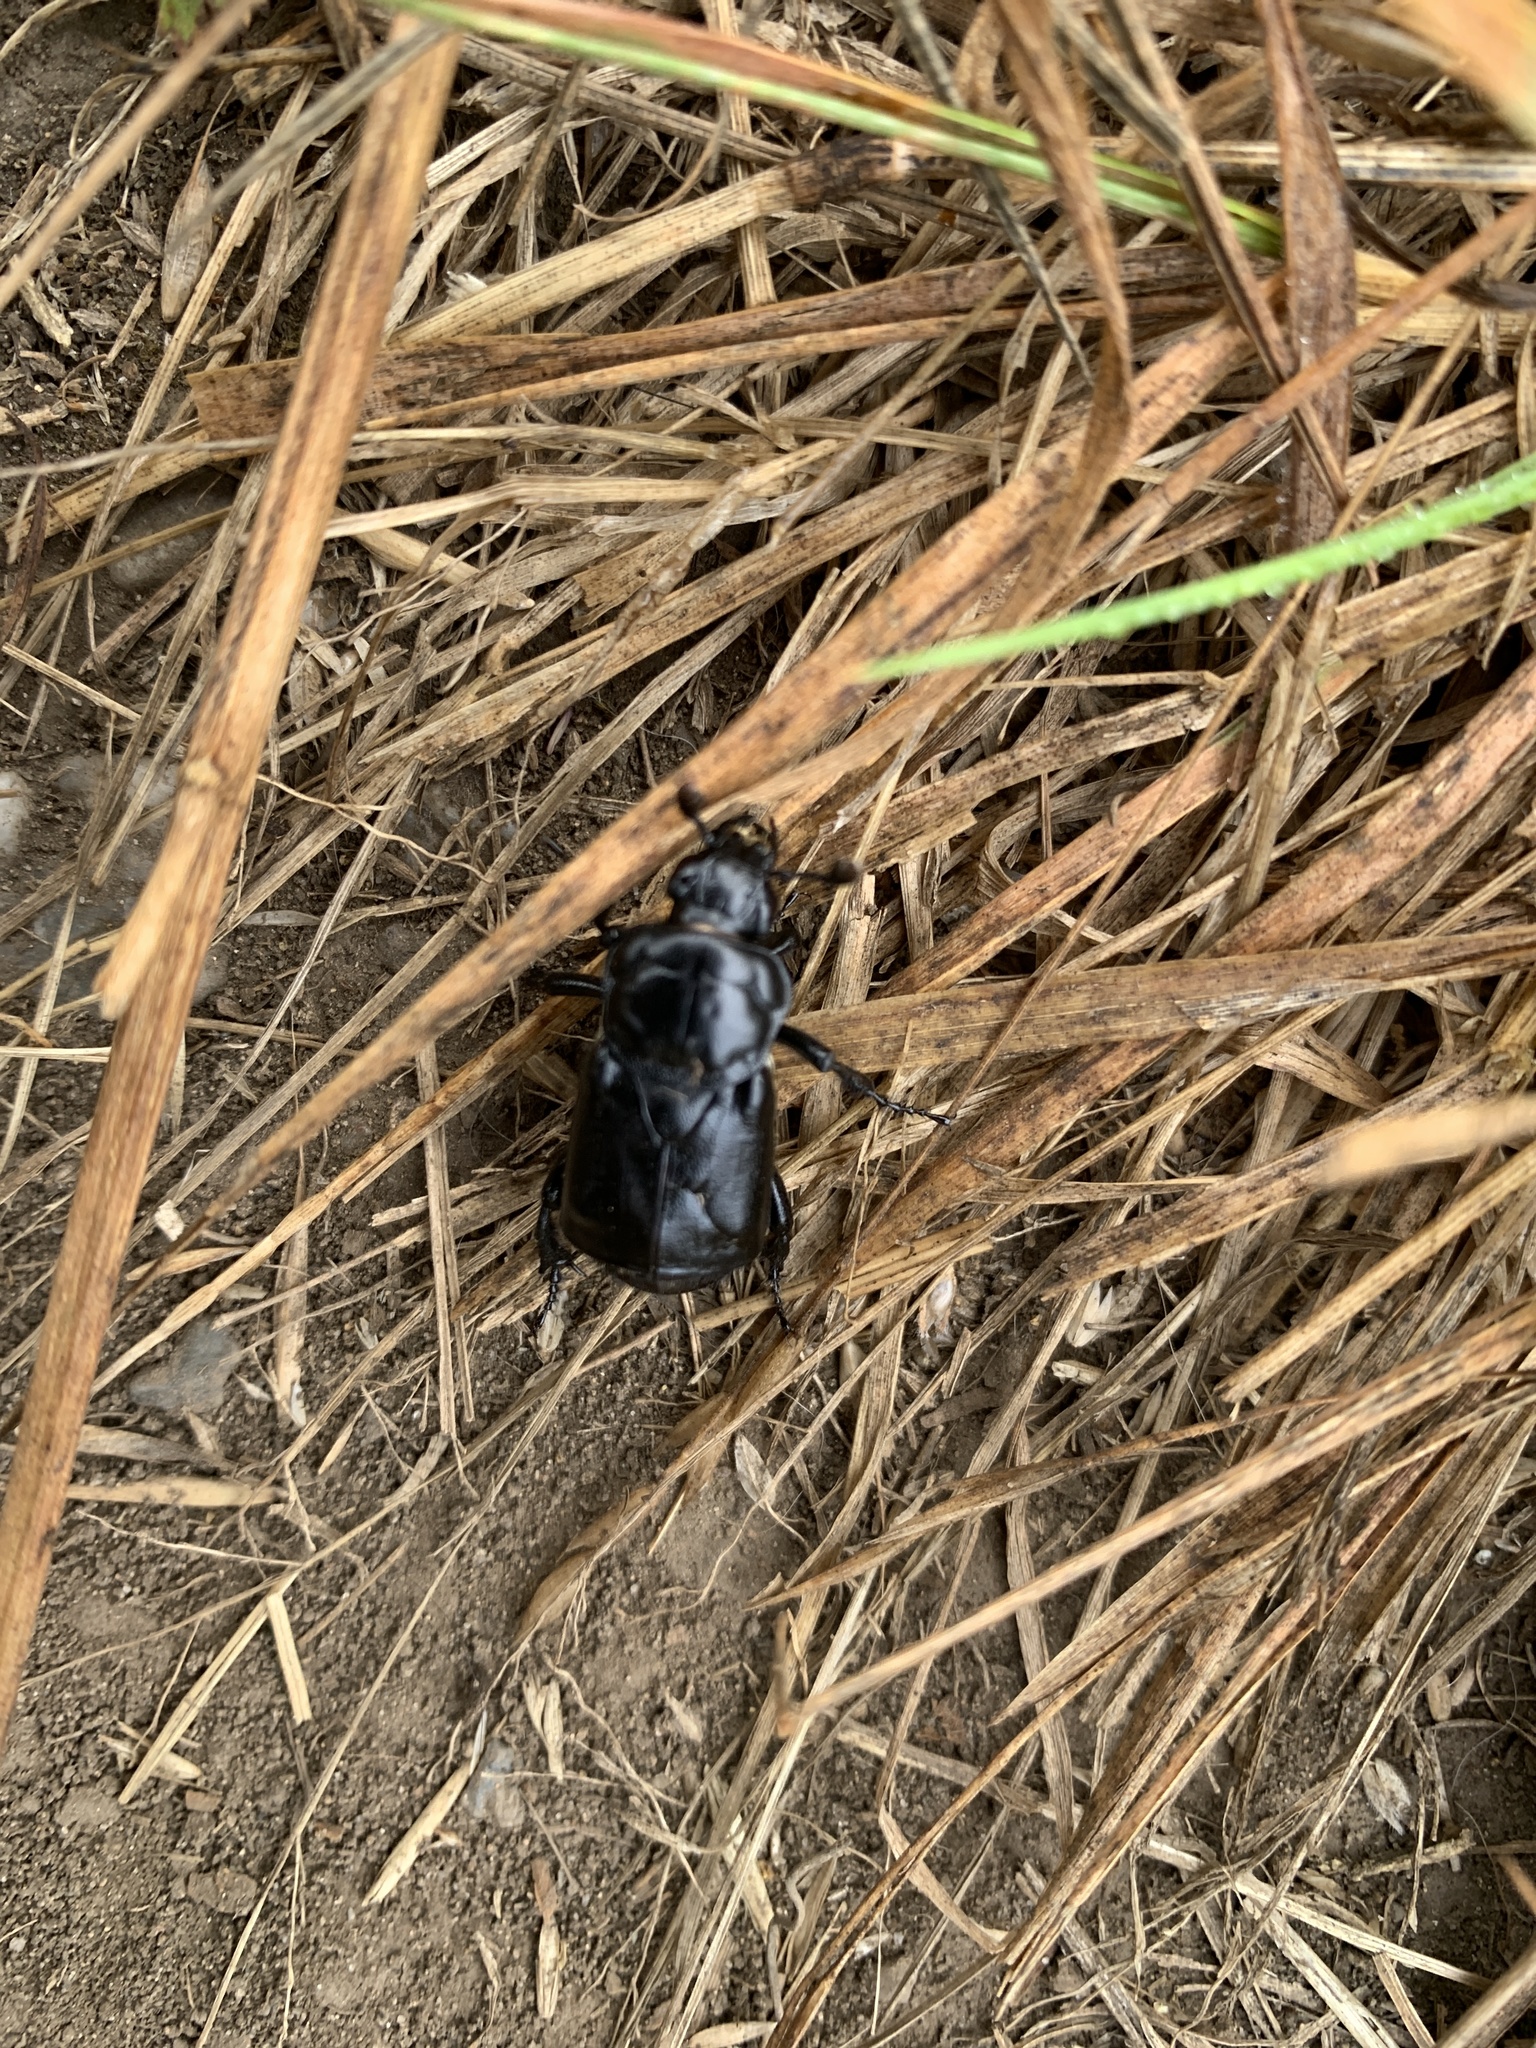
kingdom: Animalia
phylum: Arthropoda
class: Insecta
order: Coleoptera
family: Staphylinidae
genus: Nicrophorus
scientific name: Nicrophorus nigrita
